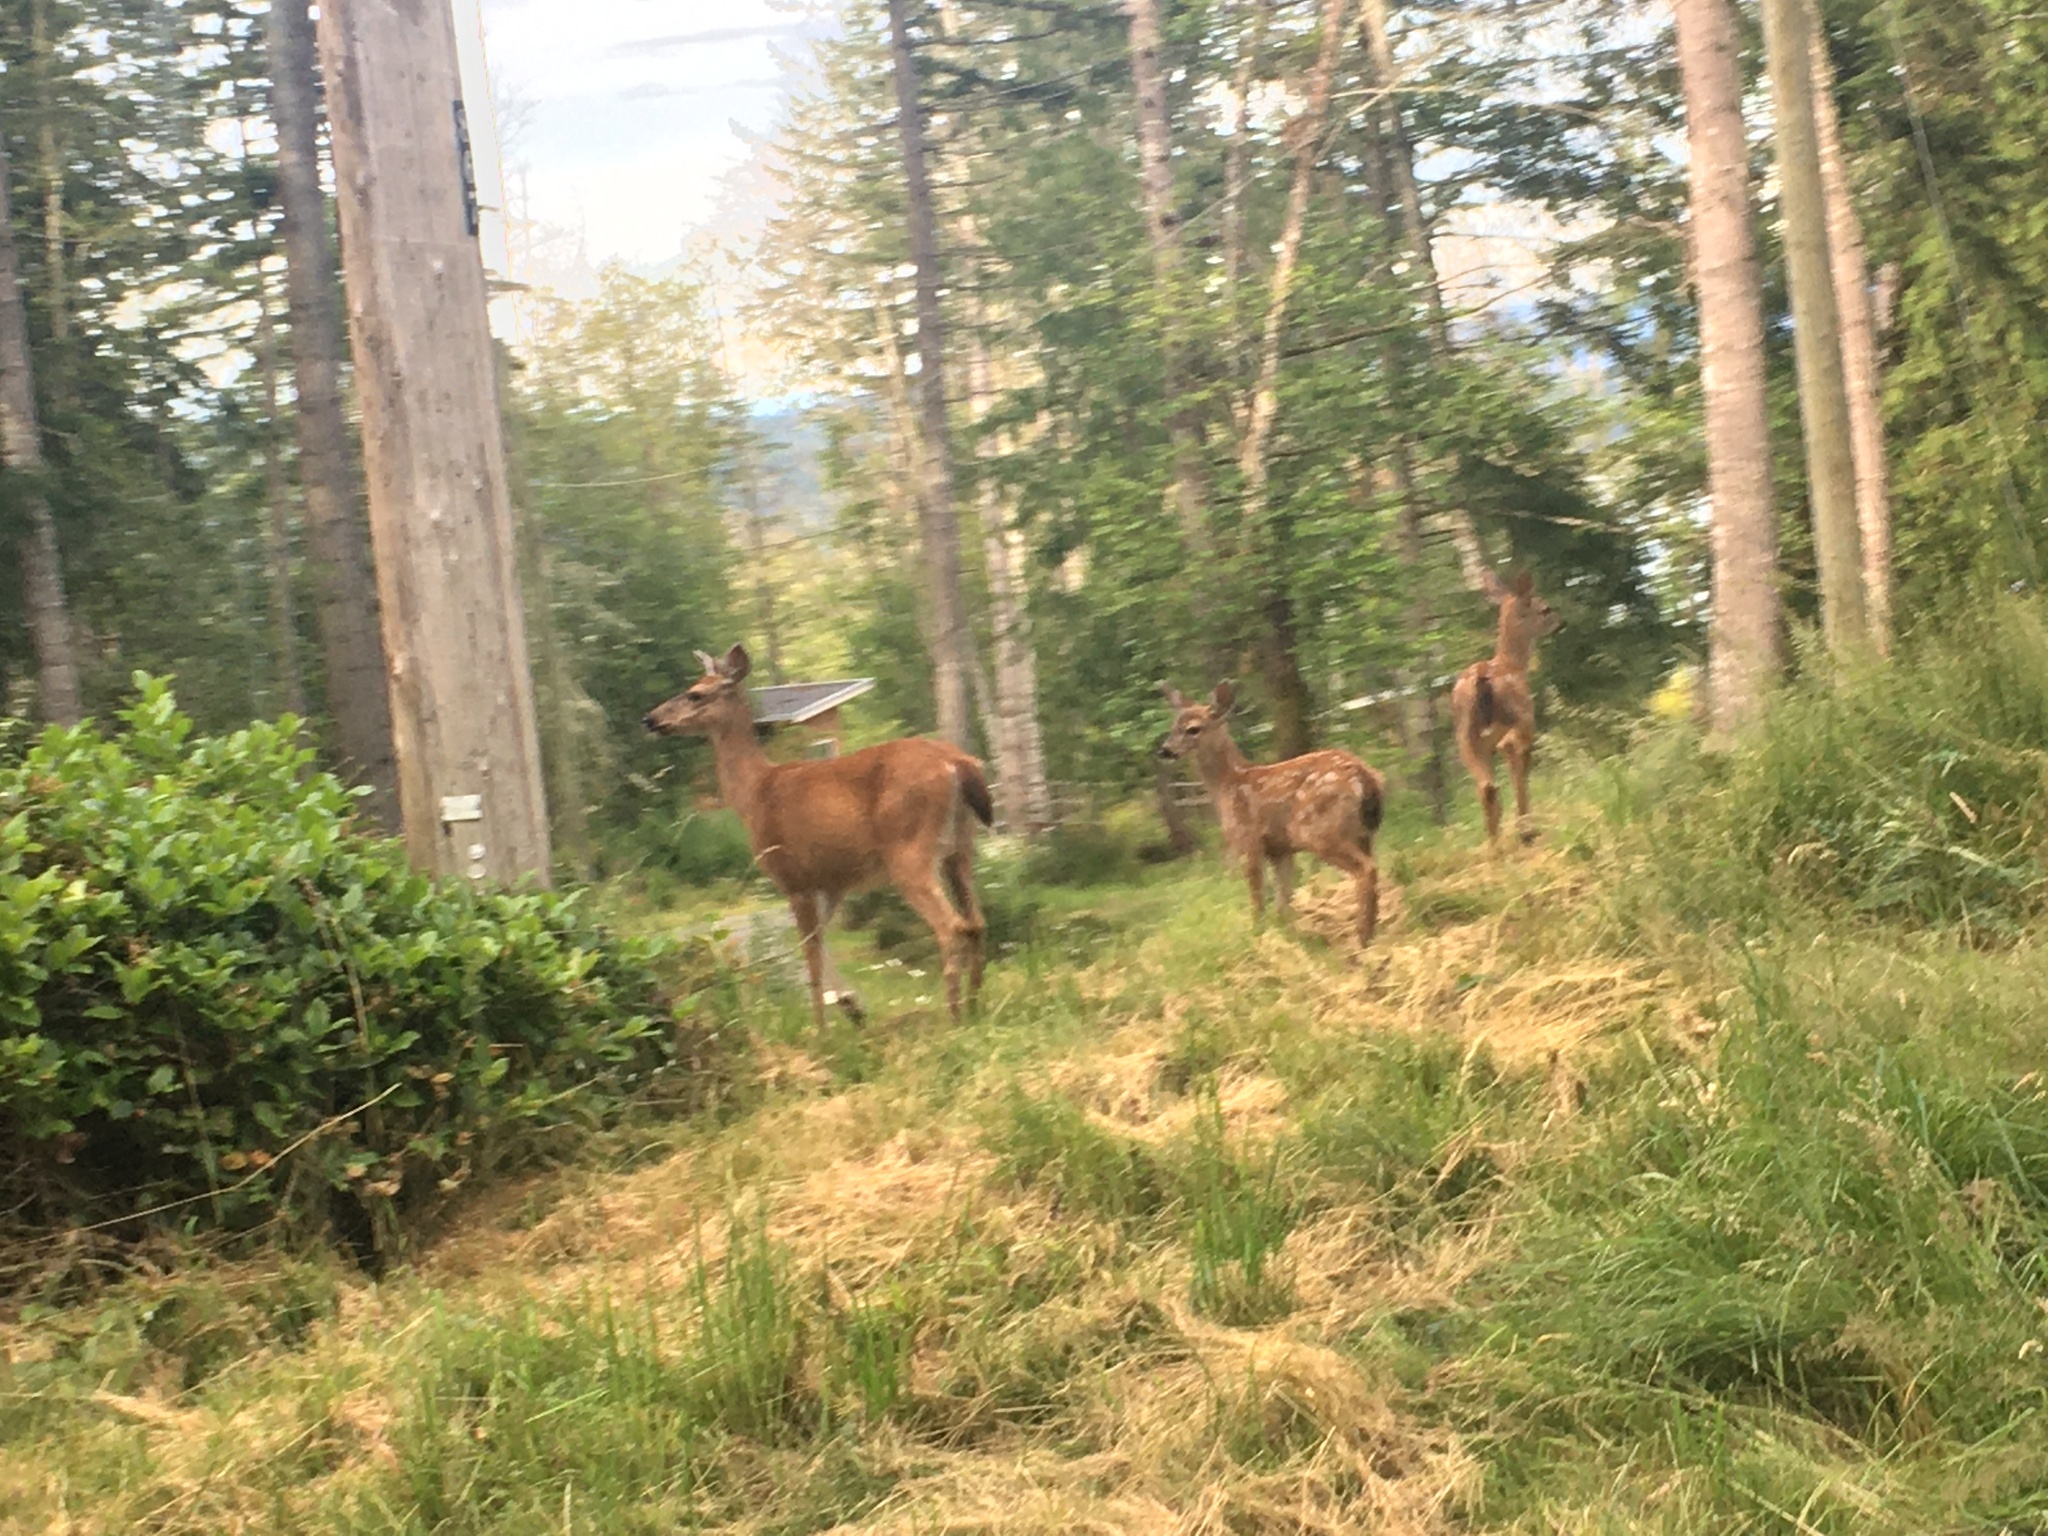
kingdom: Animalia
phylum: Chordata
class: Mammalia
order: Artiodactyla
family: Cervidae
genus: Odocoileus
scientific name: Odocoileus hemionus
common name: Mule deer
